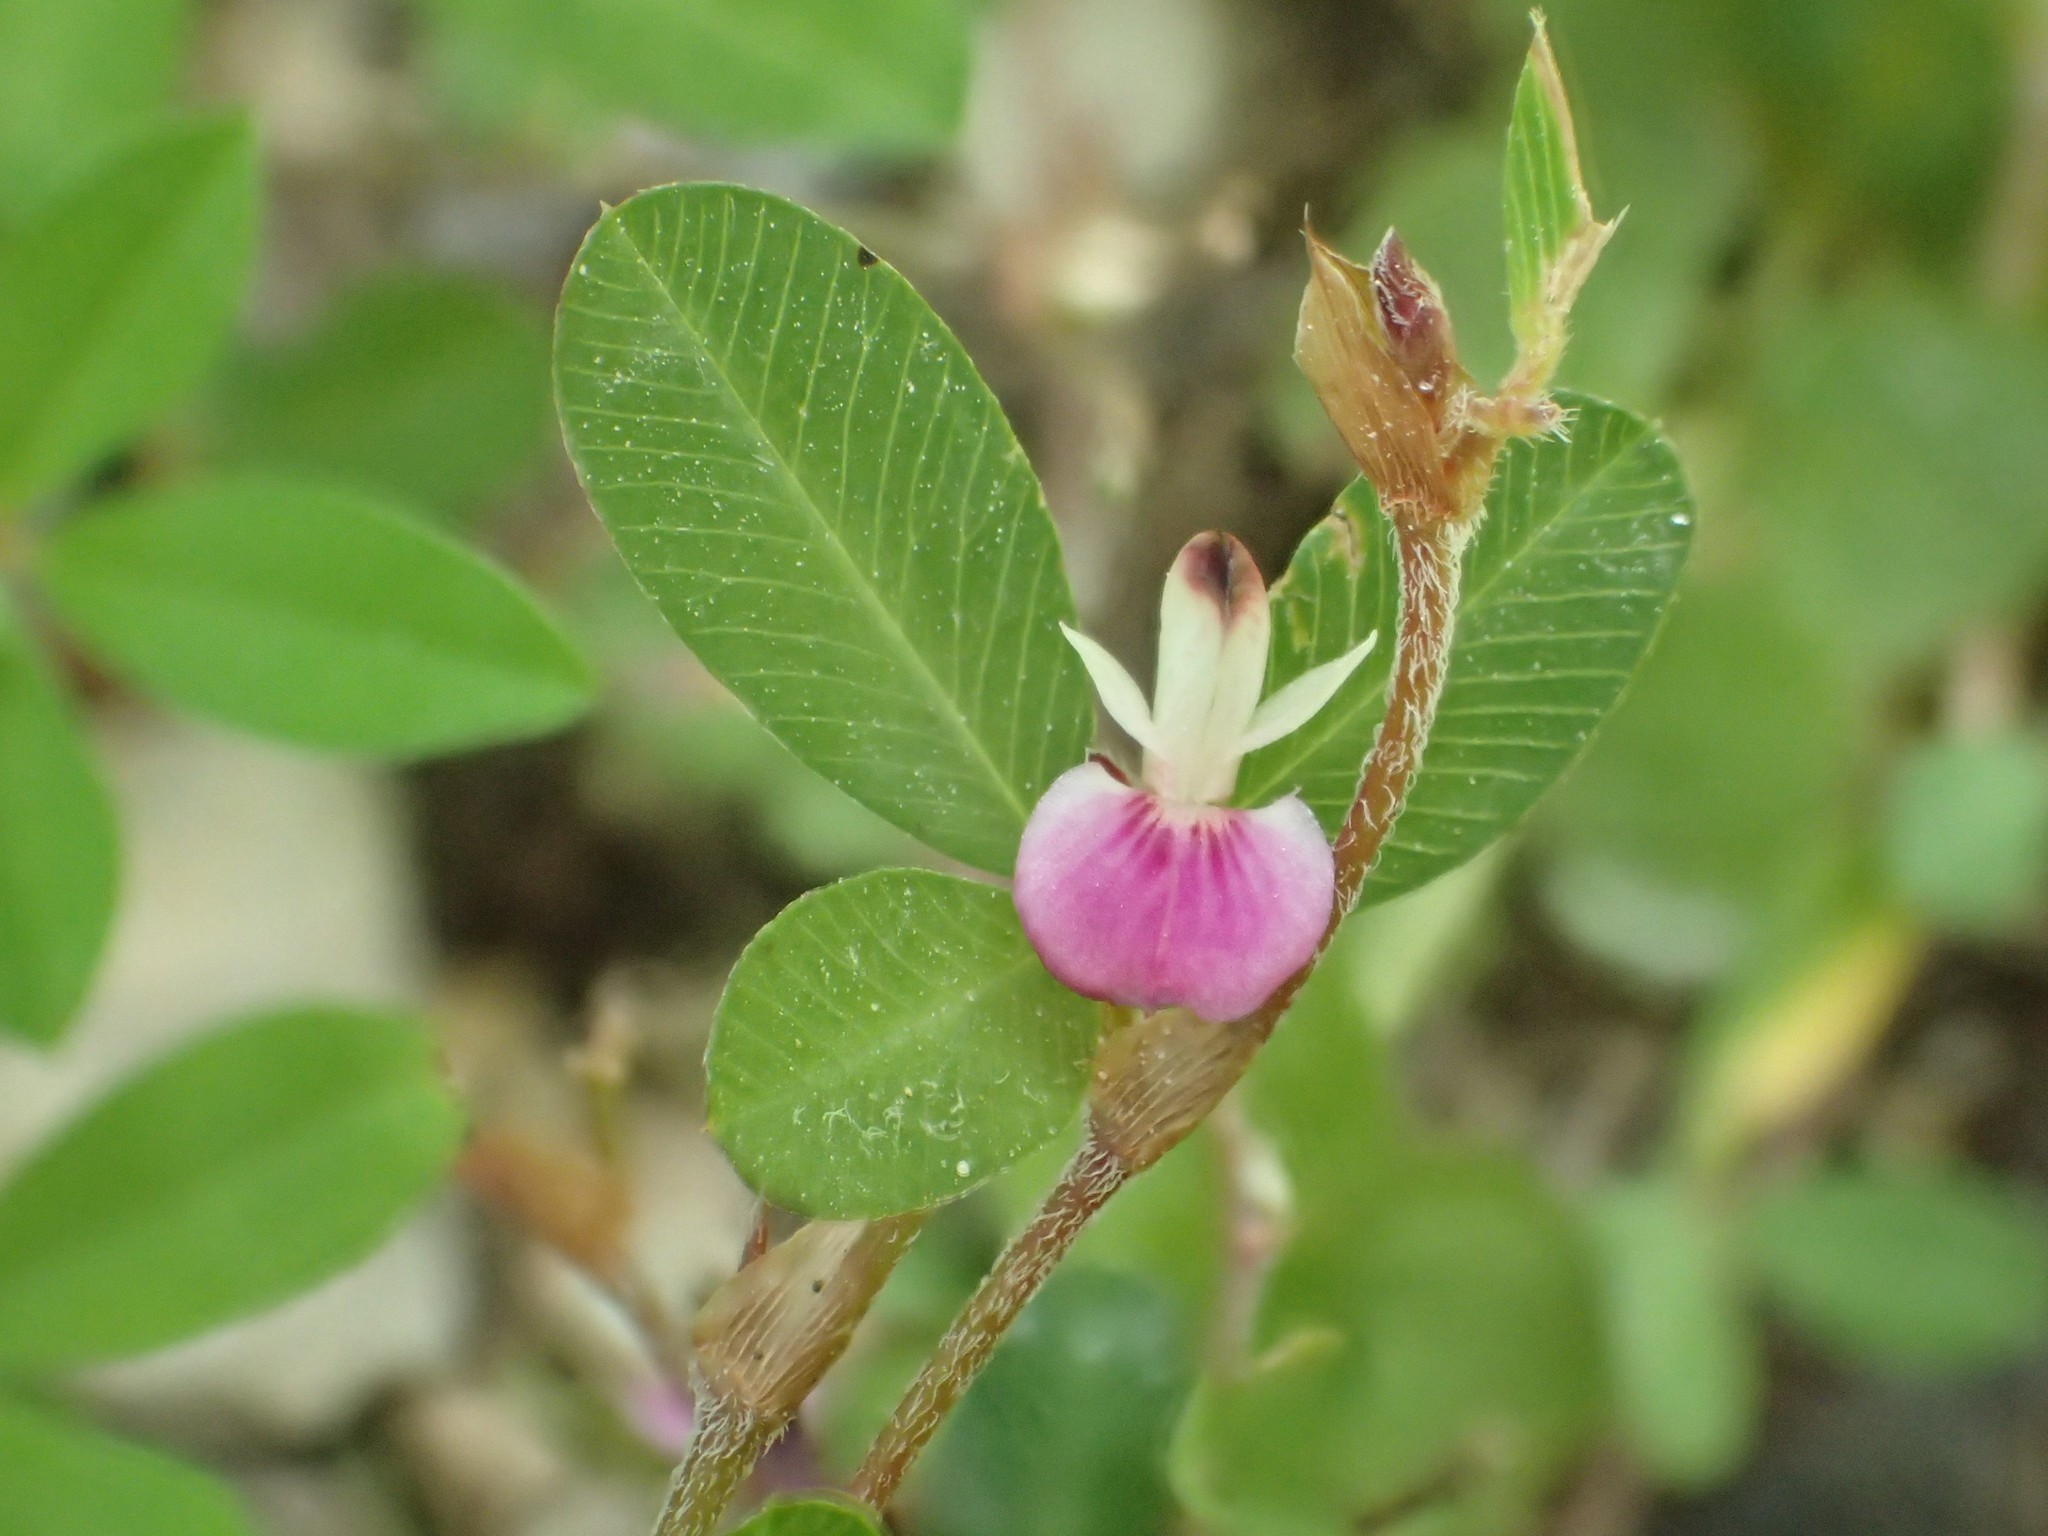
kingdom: Plantae
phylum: Tracheophyta
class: Magnoliopsida
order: Fabales
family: Fabaceae
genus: Kummerowia
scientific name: Kummerowia striata
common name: Japanese clover
